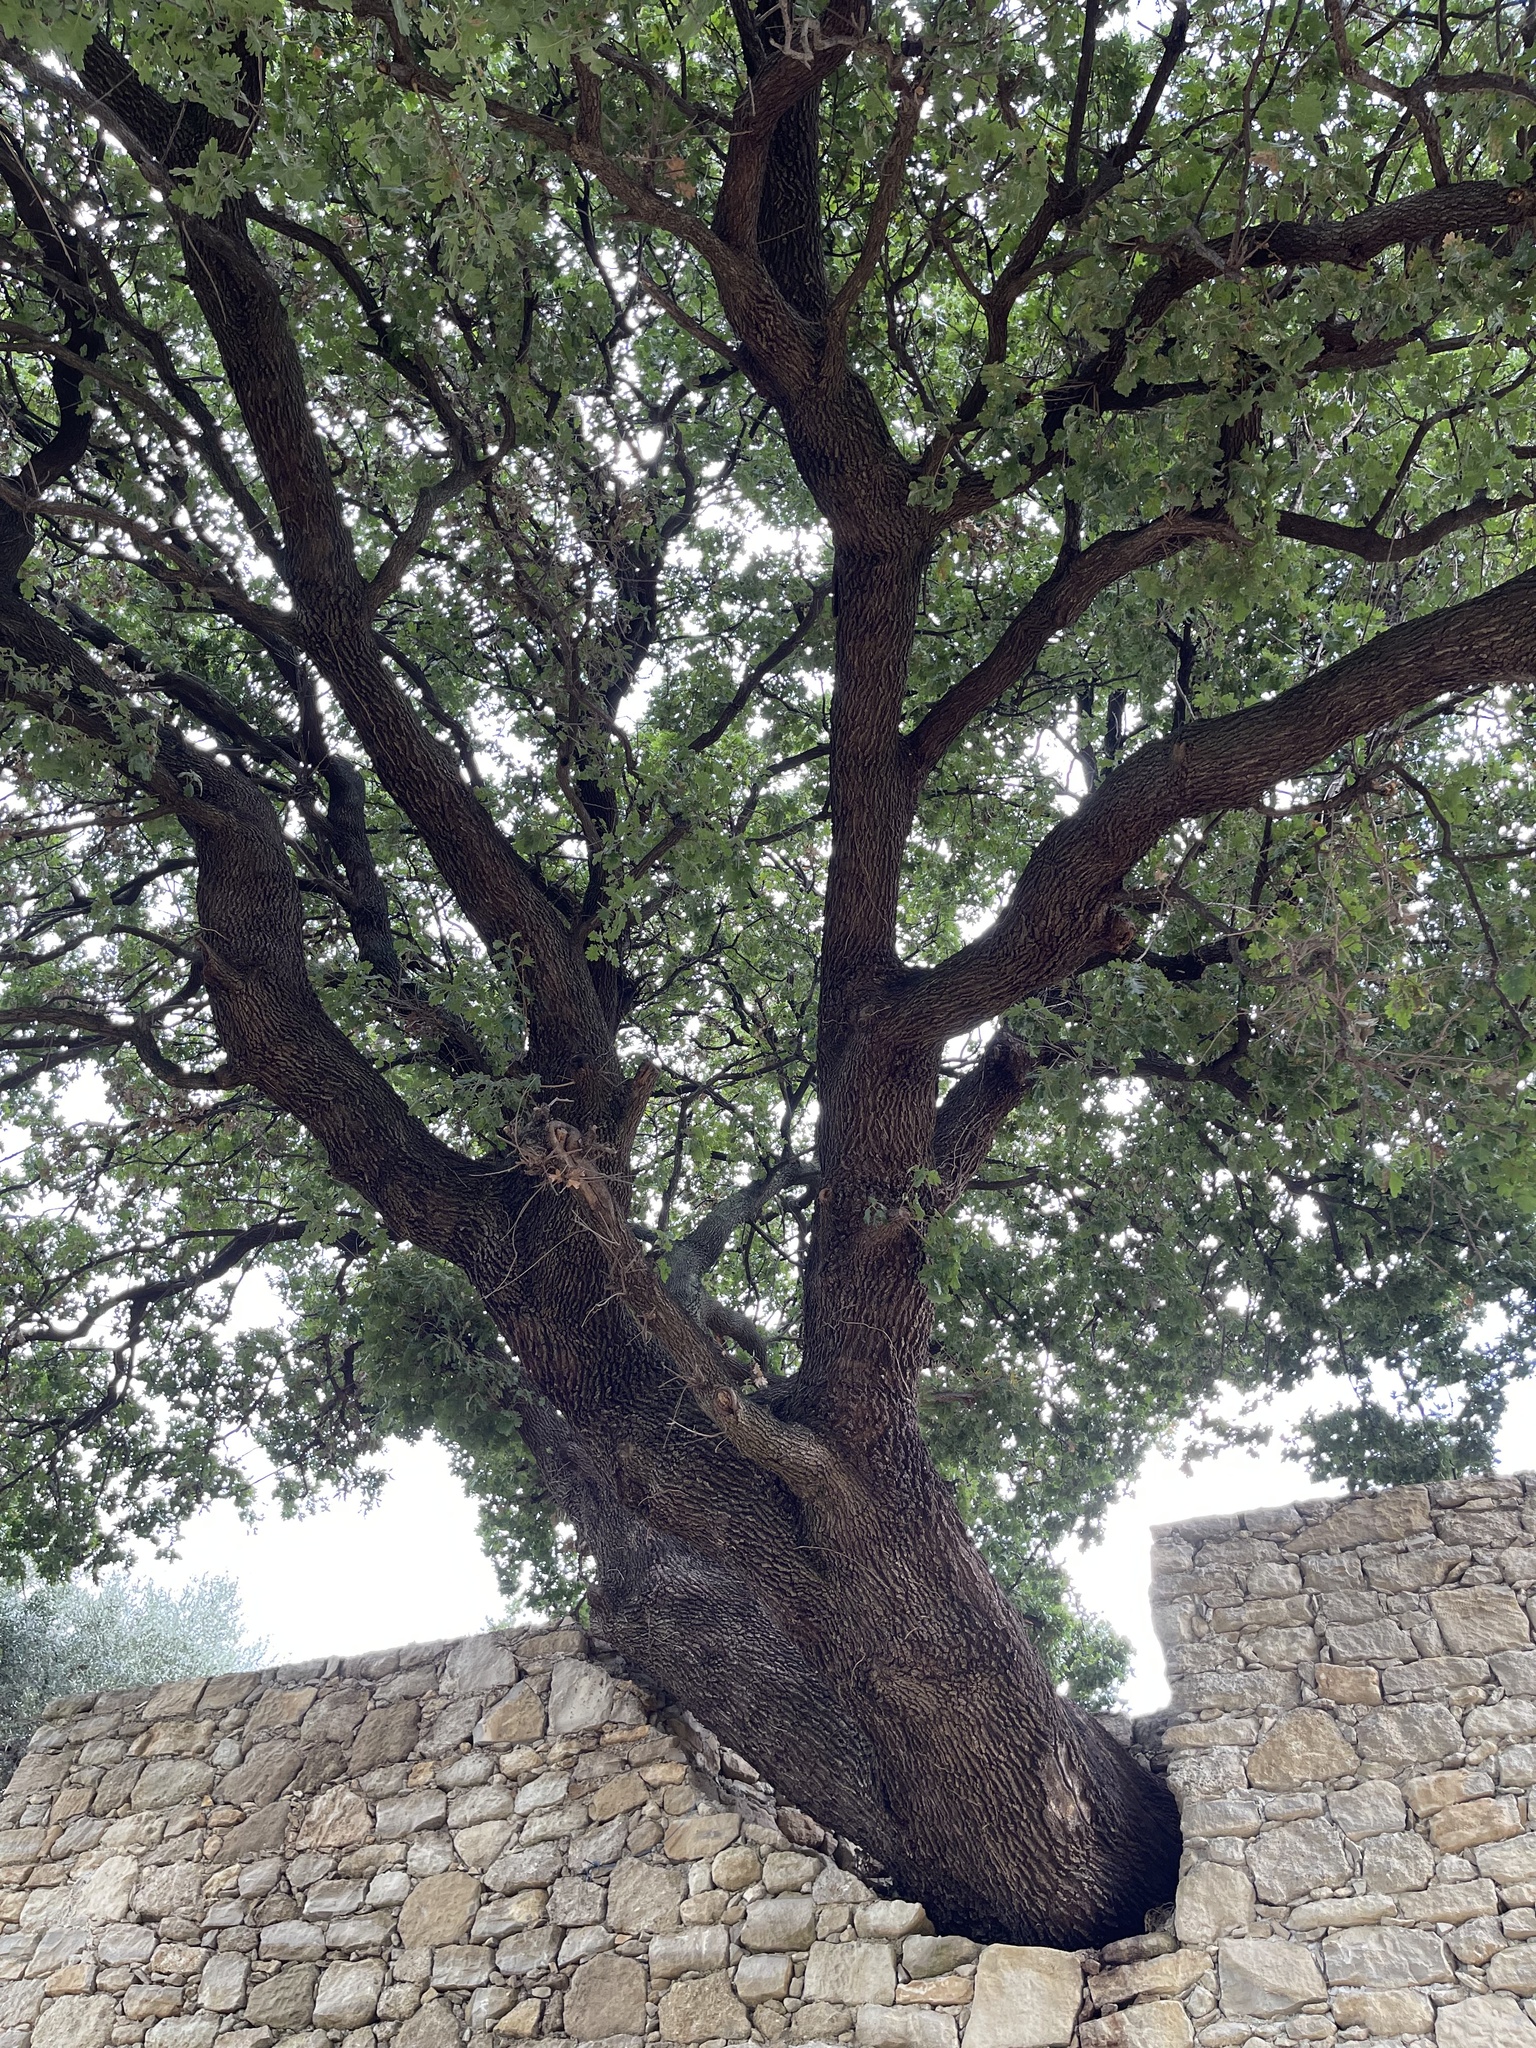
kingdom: Plantae
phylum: Tracheophyta
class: Magnoliopsida
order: Fagales
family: Fagaceae
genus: Quercus
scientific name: Quercus pubescens
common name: Downy oak
